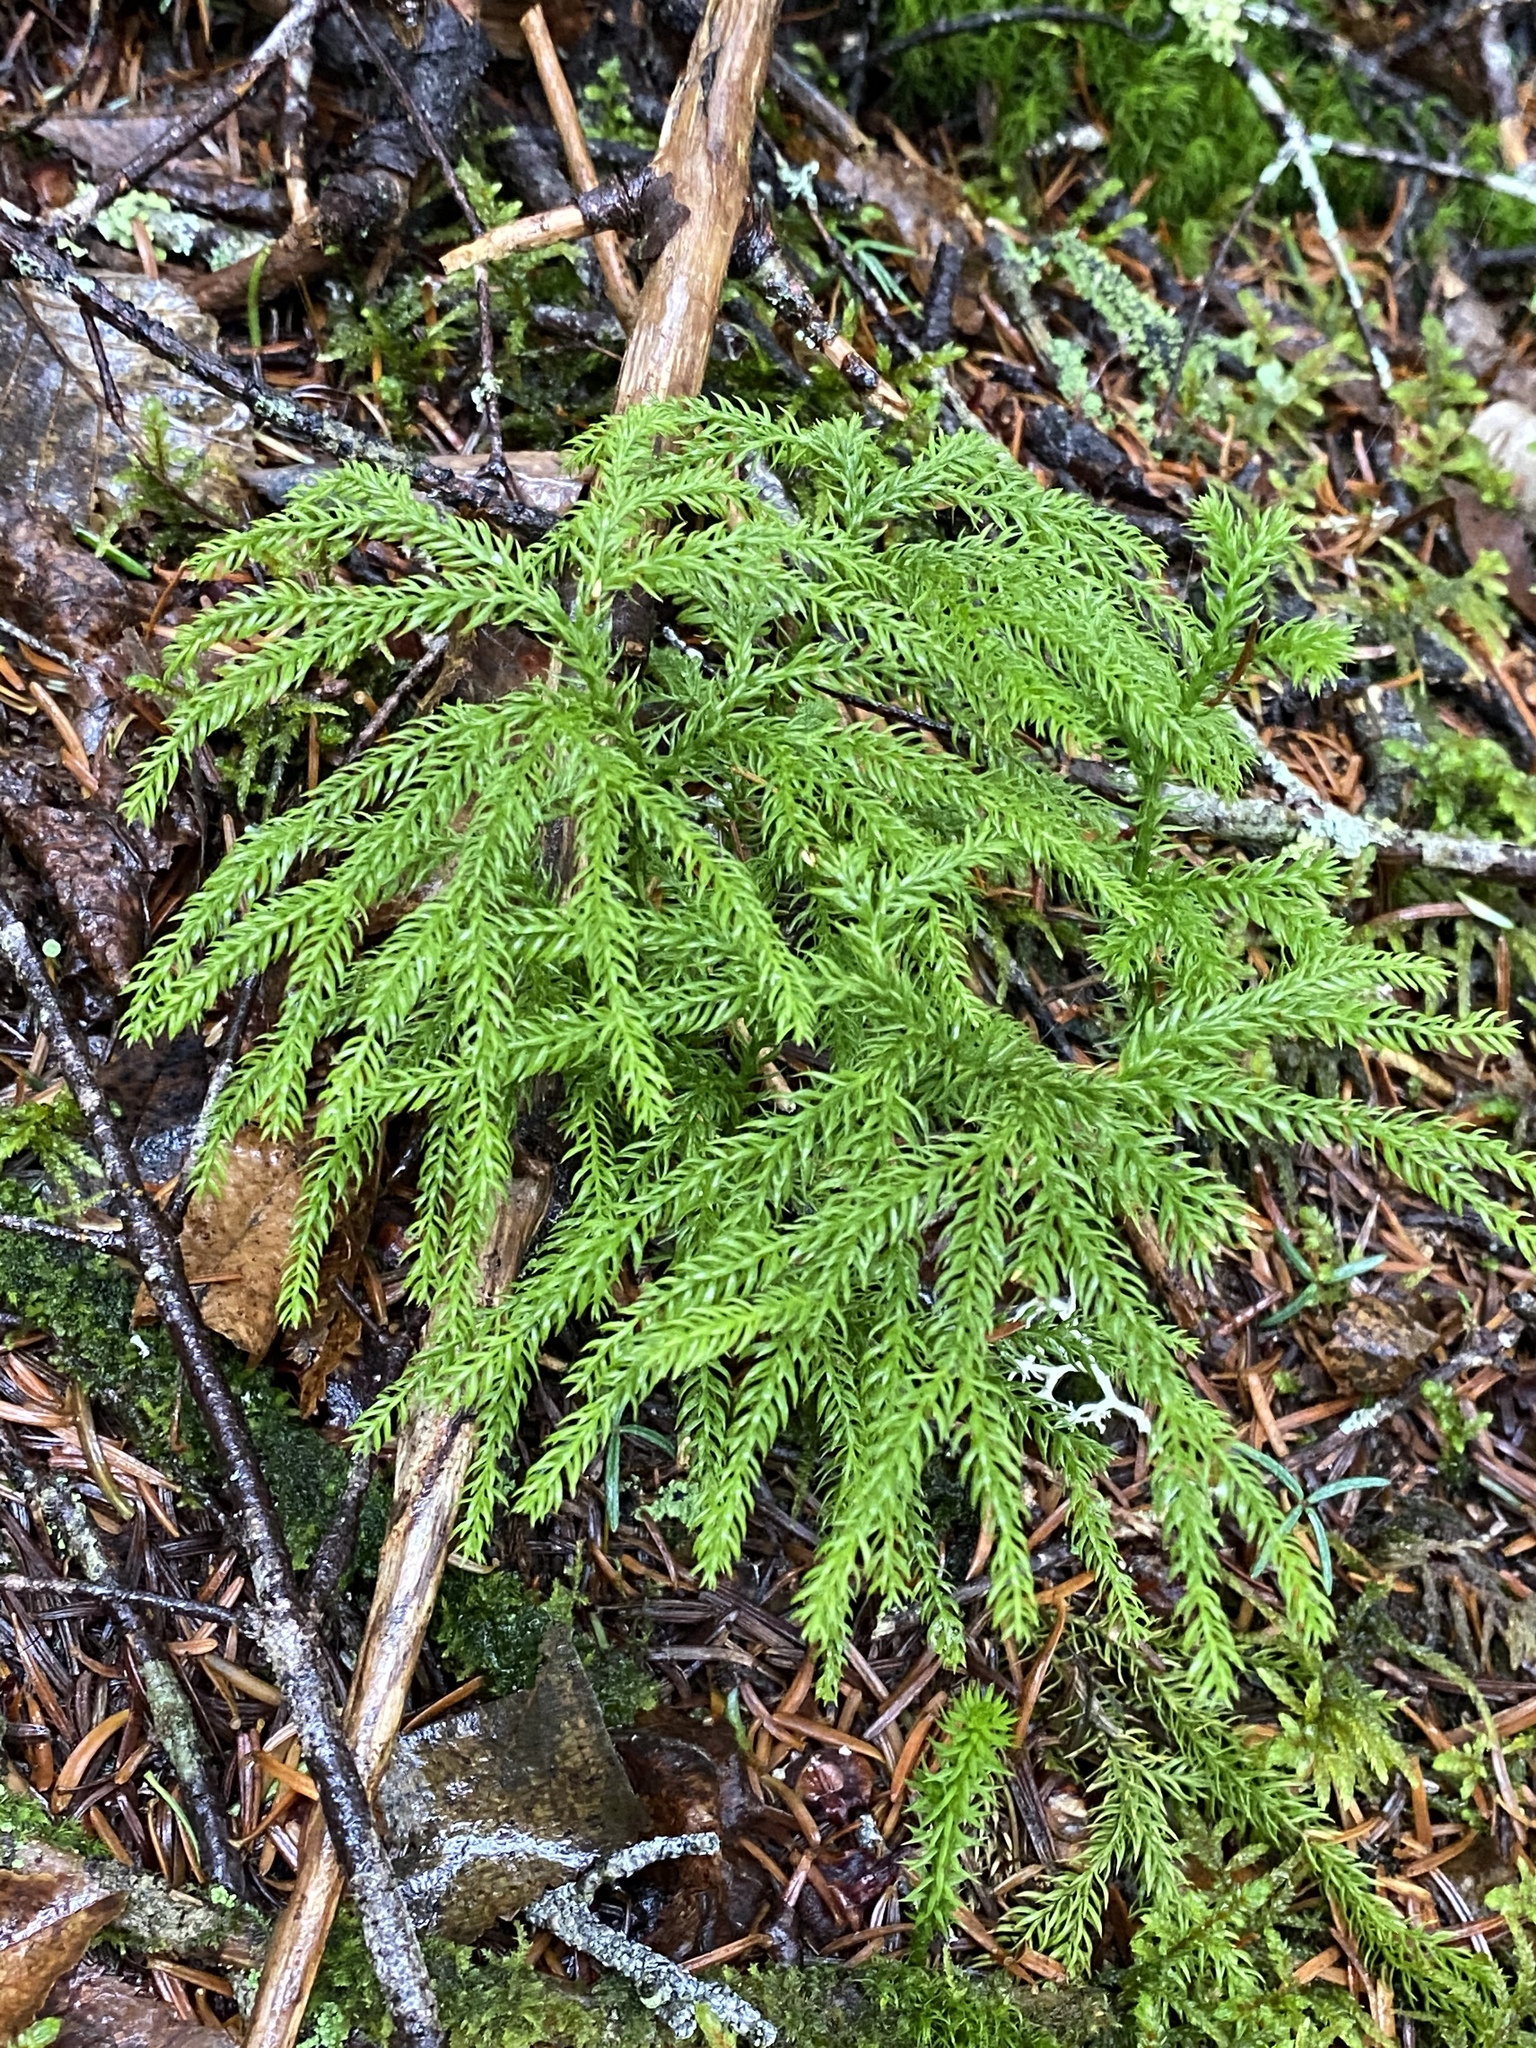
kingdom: Plantae
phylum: Tracheophyta
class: Lycopodiopsida
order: Lycopodiales
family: Lycopodiaceae
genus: Dendrolycopodium
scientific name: Dendrolycopodium dendroideum
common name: Northern tree-clubmoss
